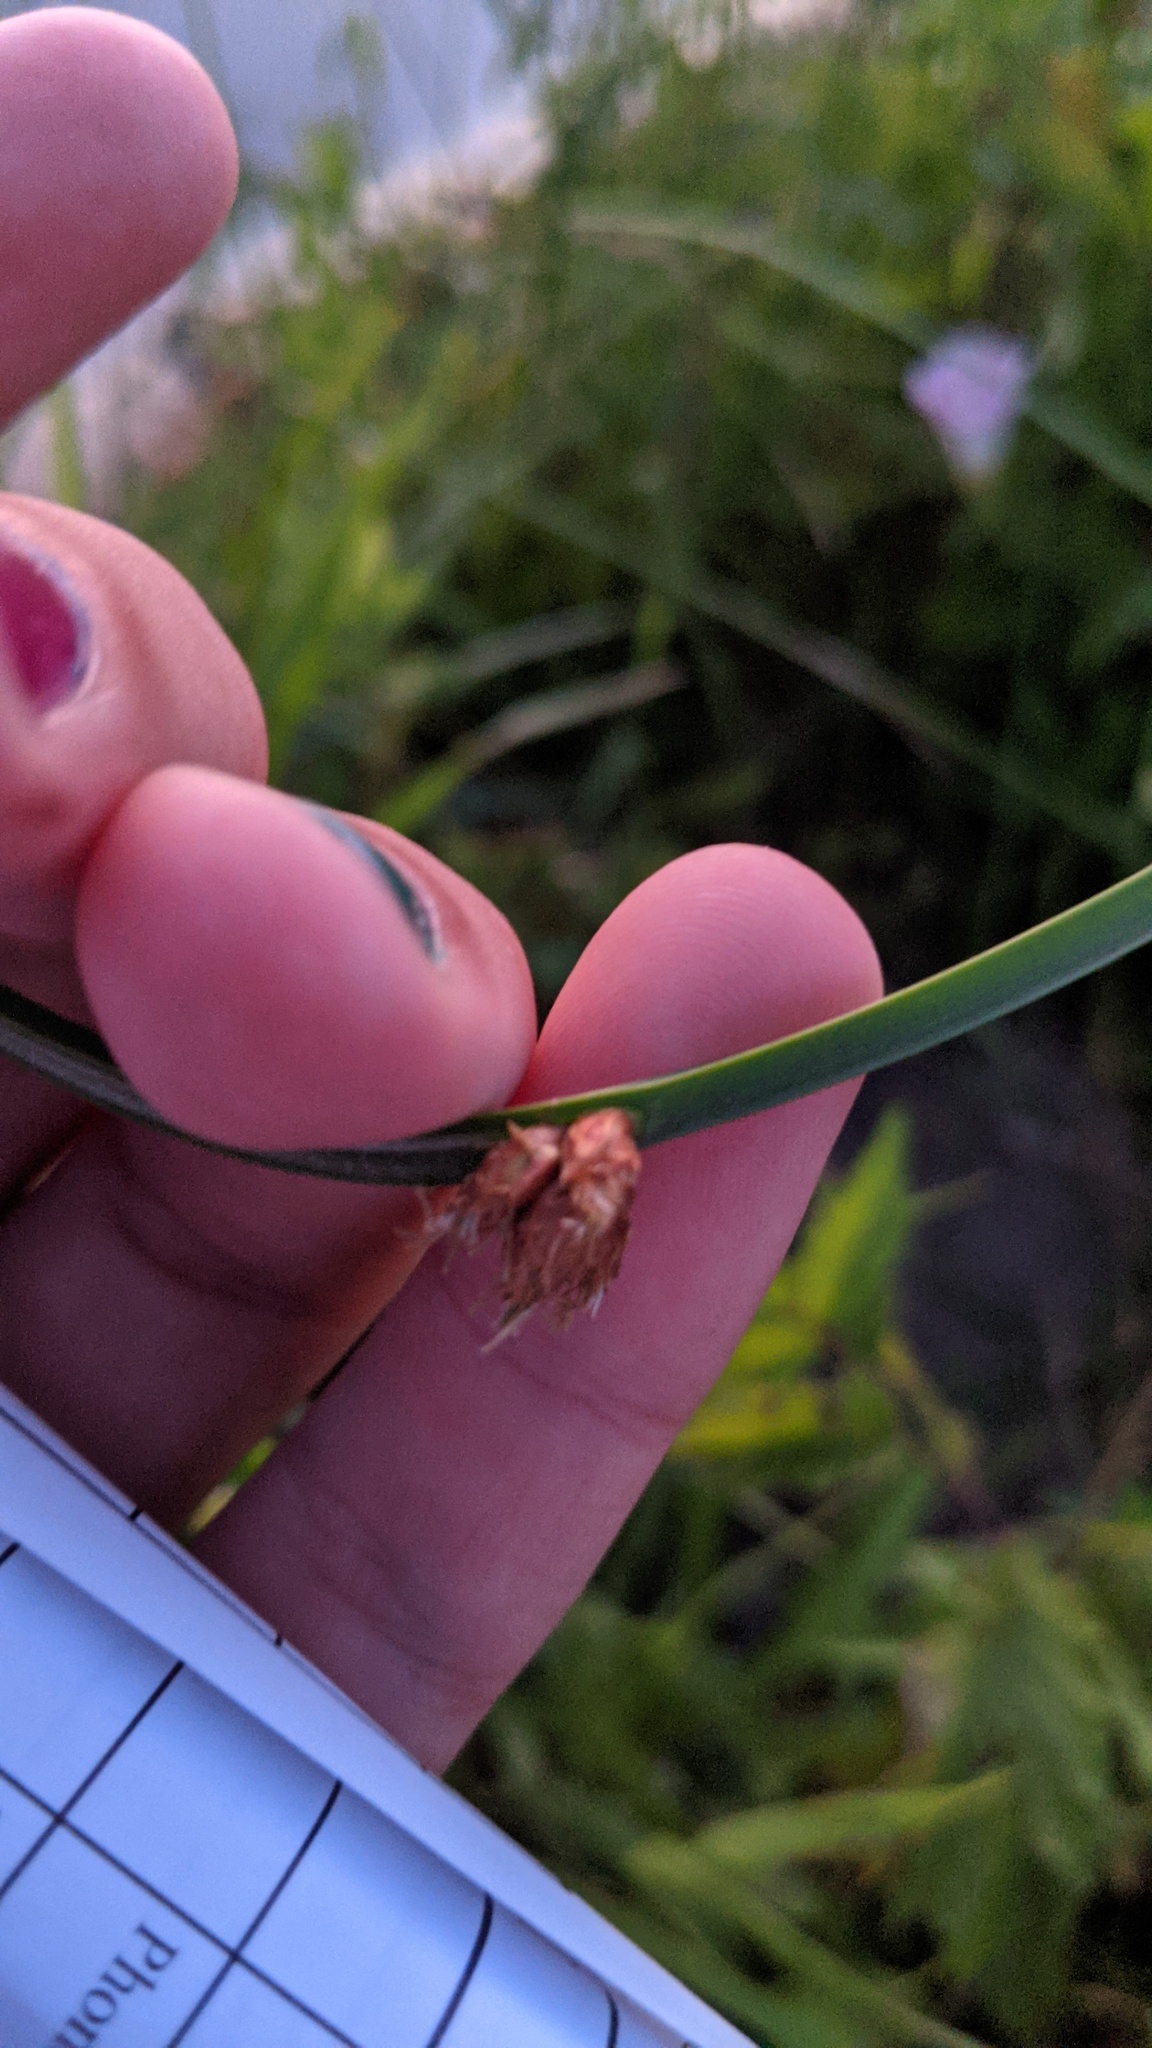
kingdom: Plantae
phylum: Tracheophyta
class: Liliopsida
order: Poales
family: Cyperaceae
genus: Schoenoplectus
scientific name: Schoenoplectus pungens
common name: Sharp club-rush
